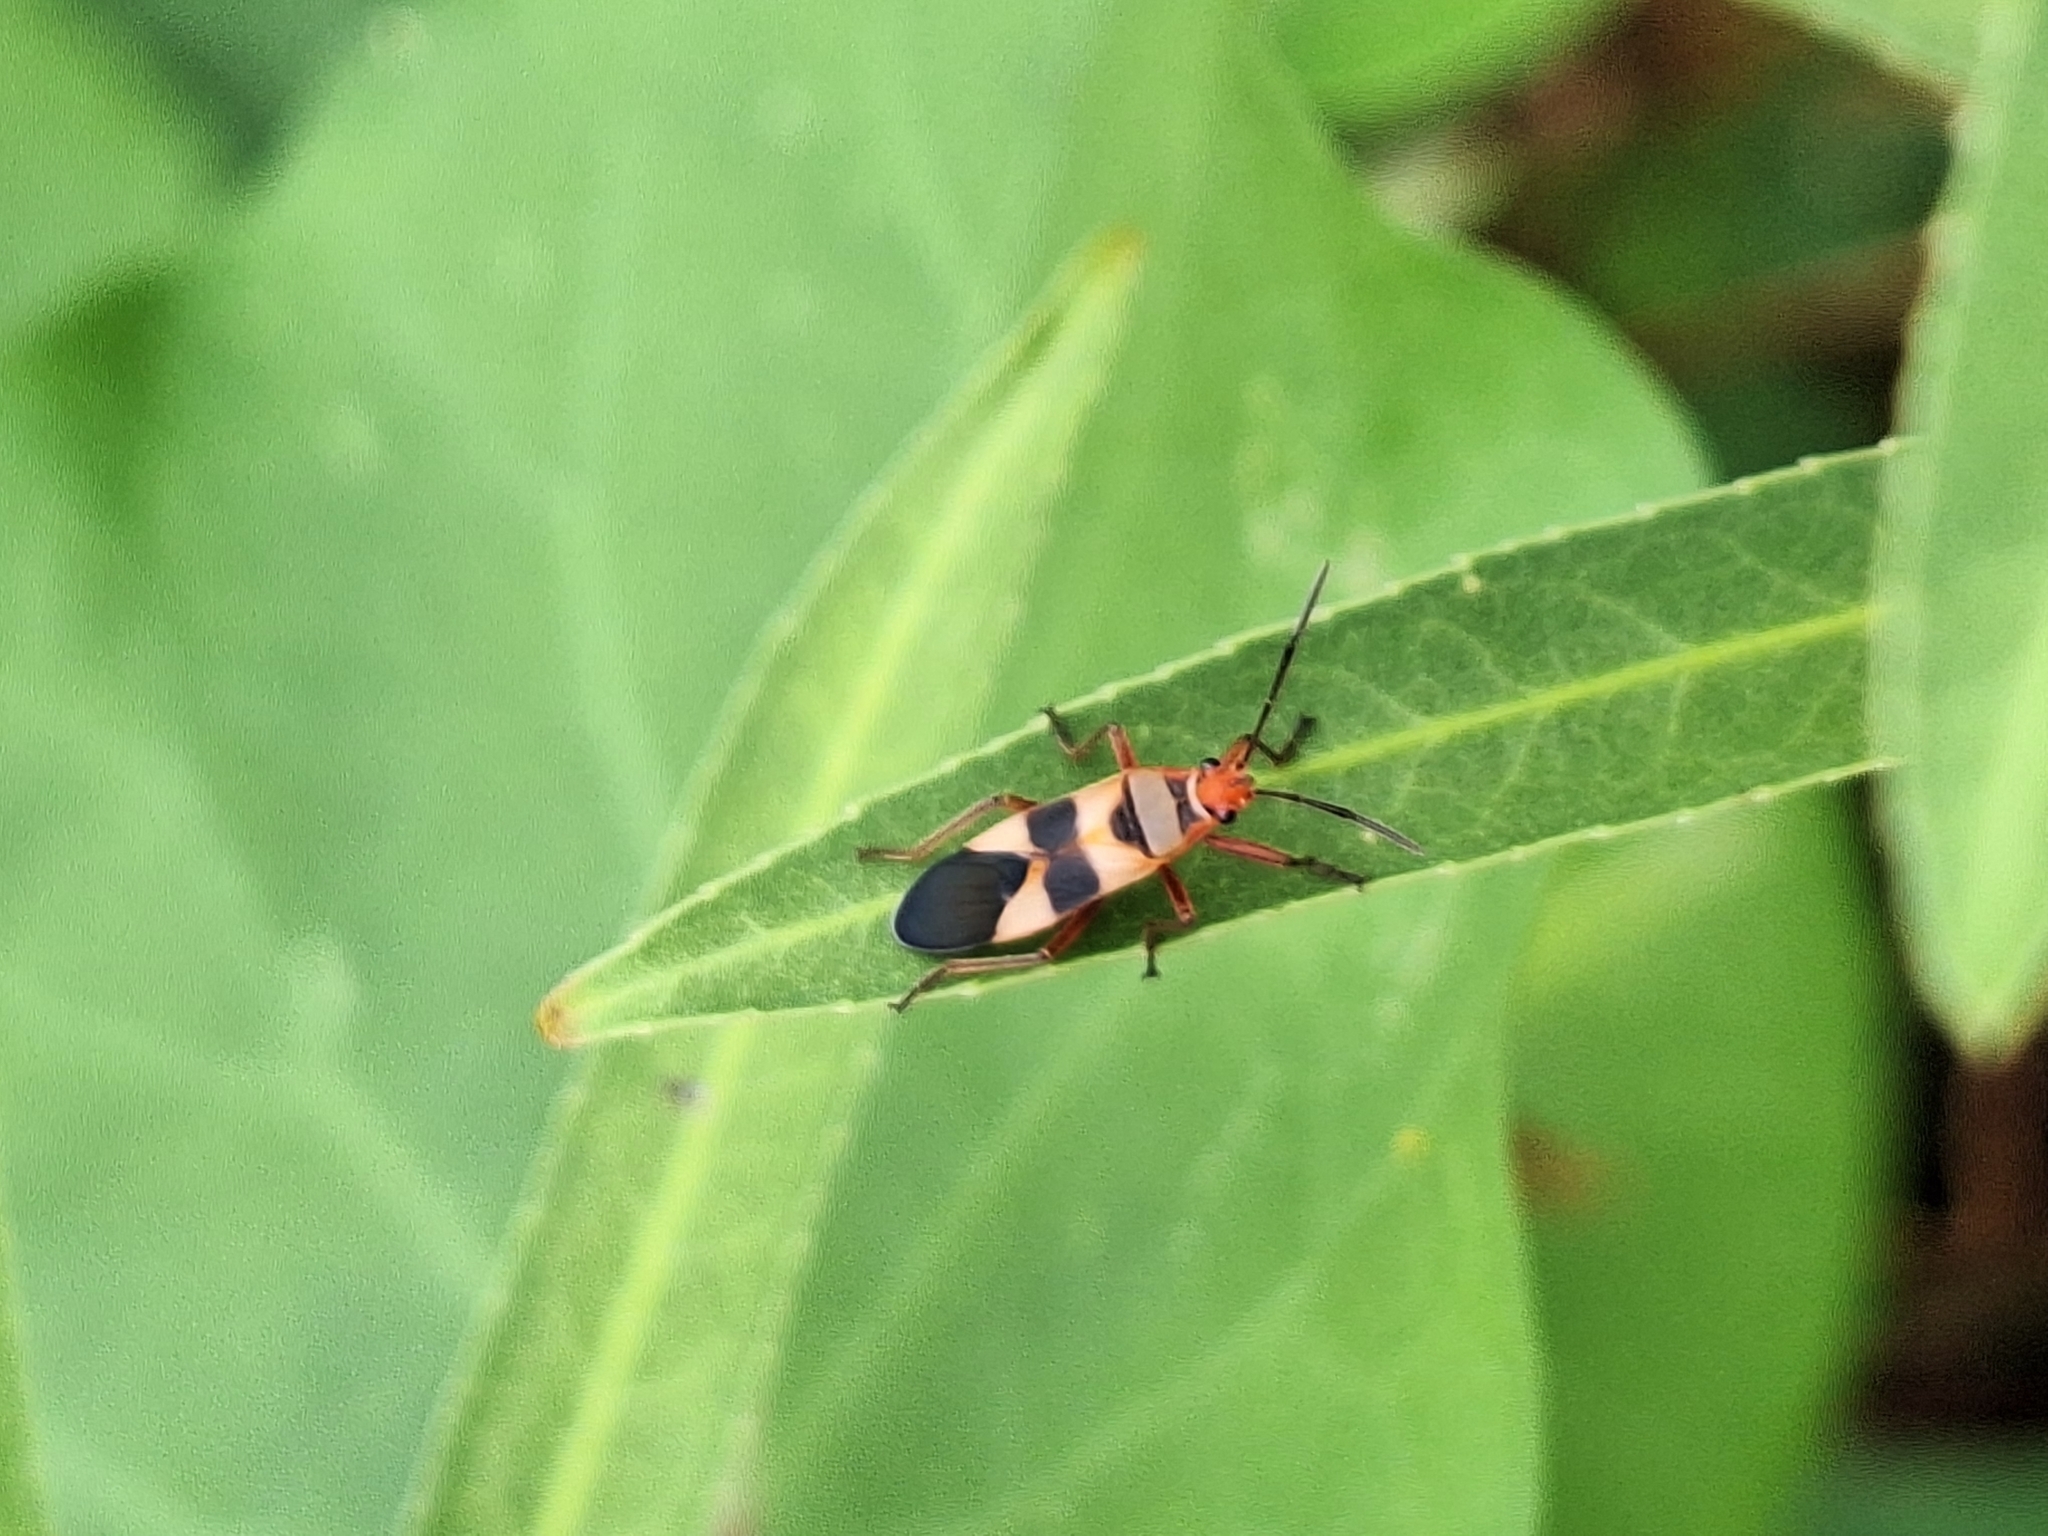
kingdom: Animalia
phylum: Arthropoda
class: Insecta
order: Hemiptera
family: Lygaeidae
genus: Oncopeltus
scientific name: Oncopeltus unifasciatellus
